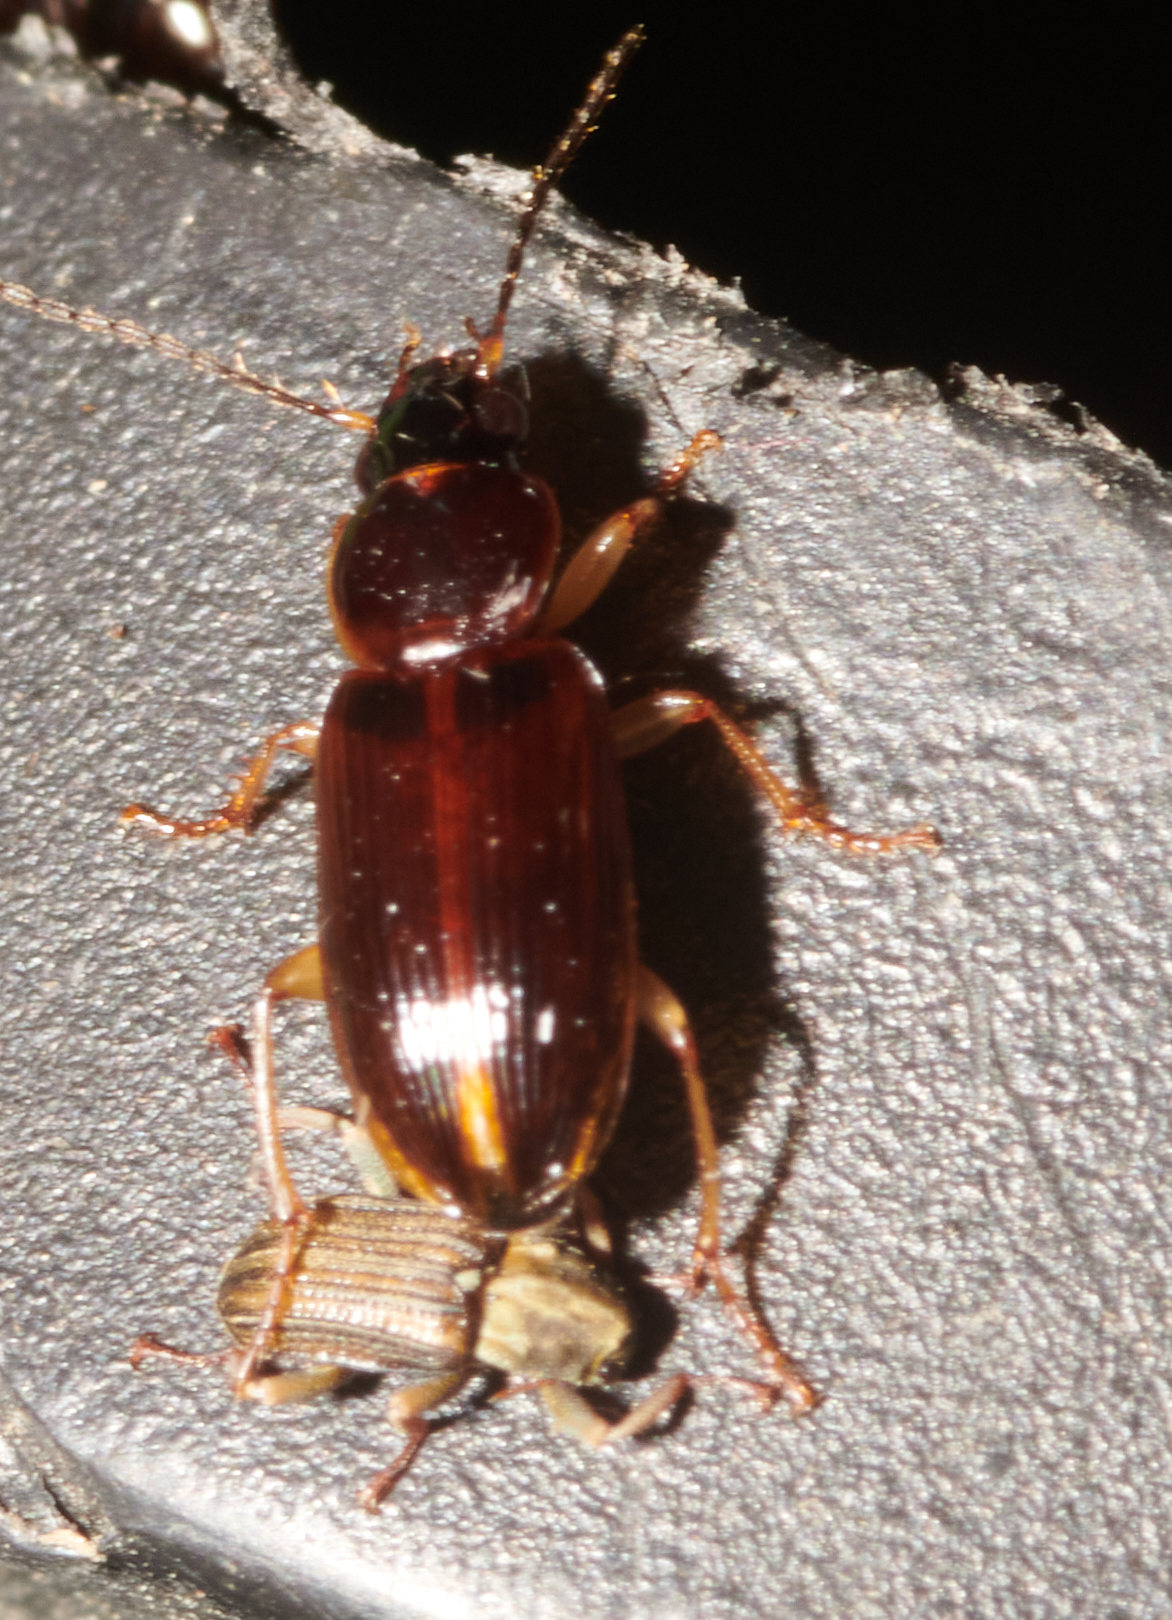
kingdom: Animalia
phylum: Arthropoda
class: Insecta
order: Coleoptera
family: Carabidae
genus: Stenolophus
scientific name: Stenolophus ochropezus
